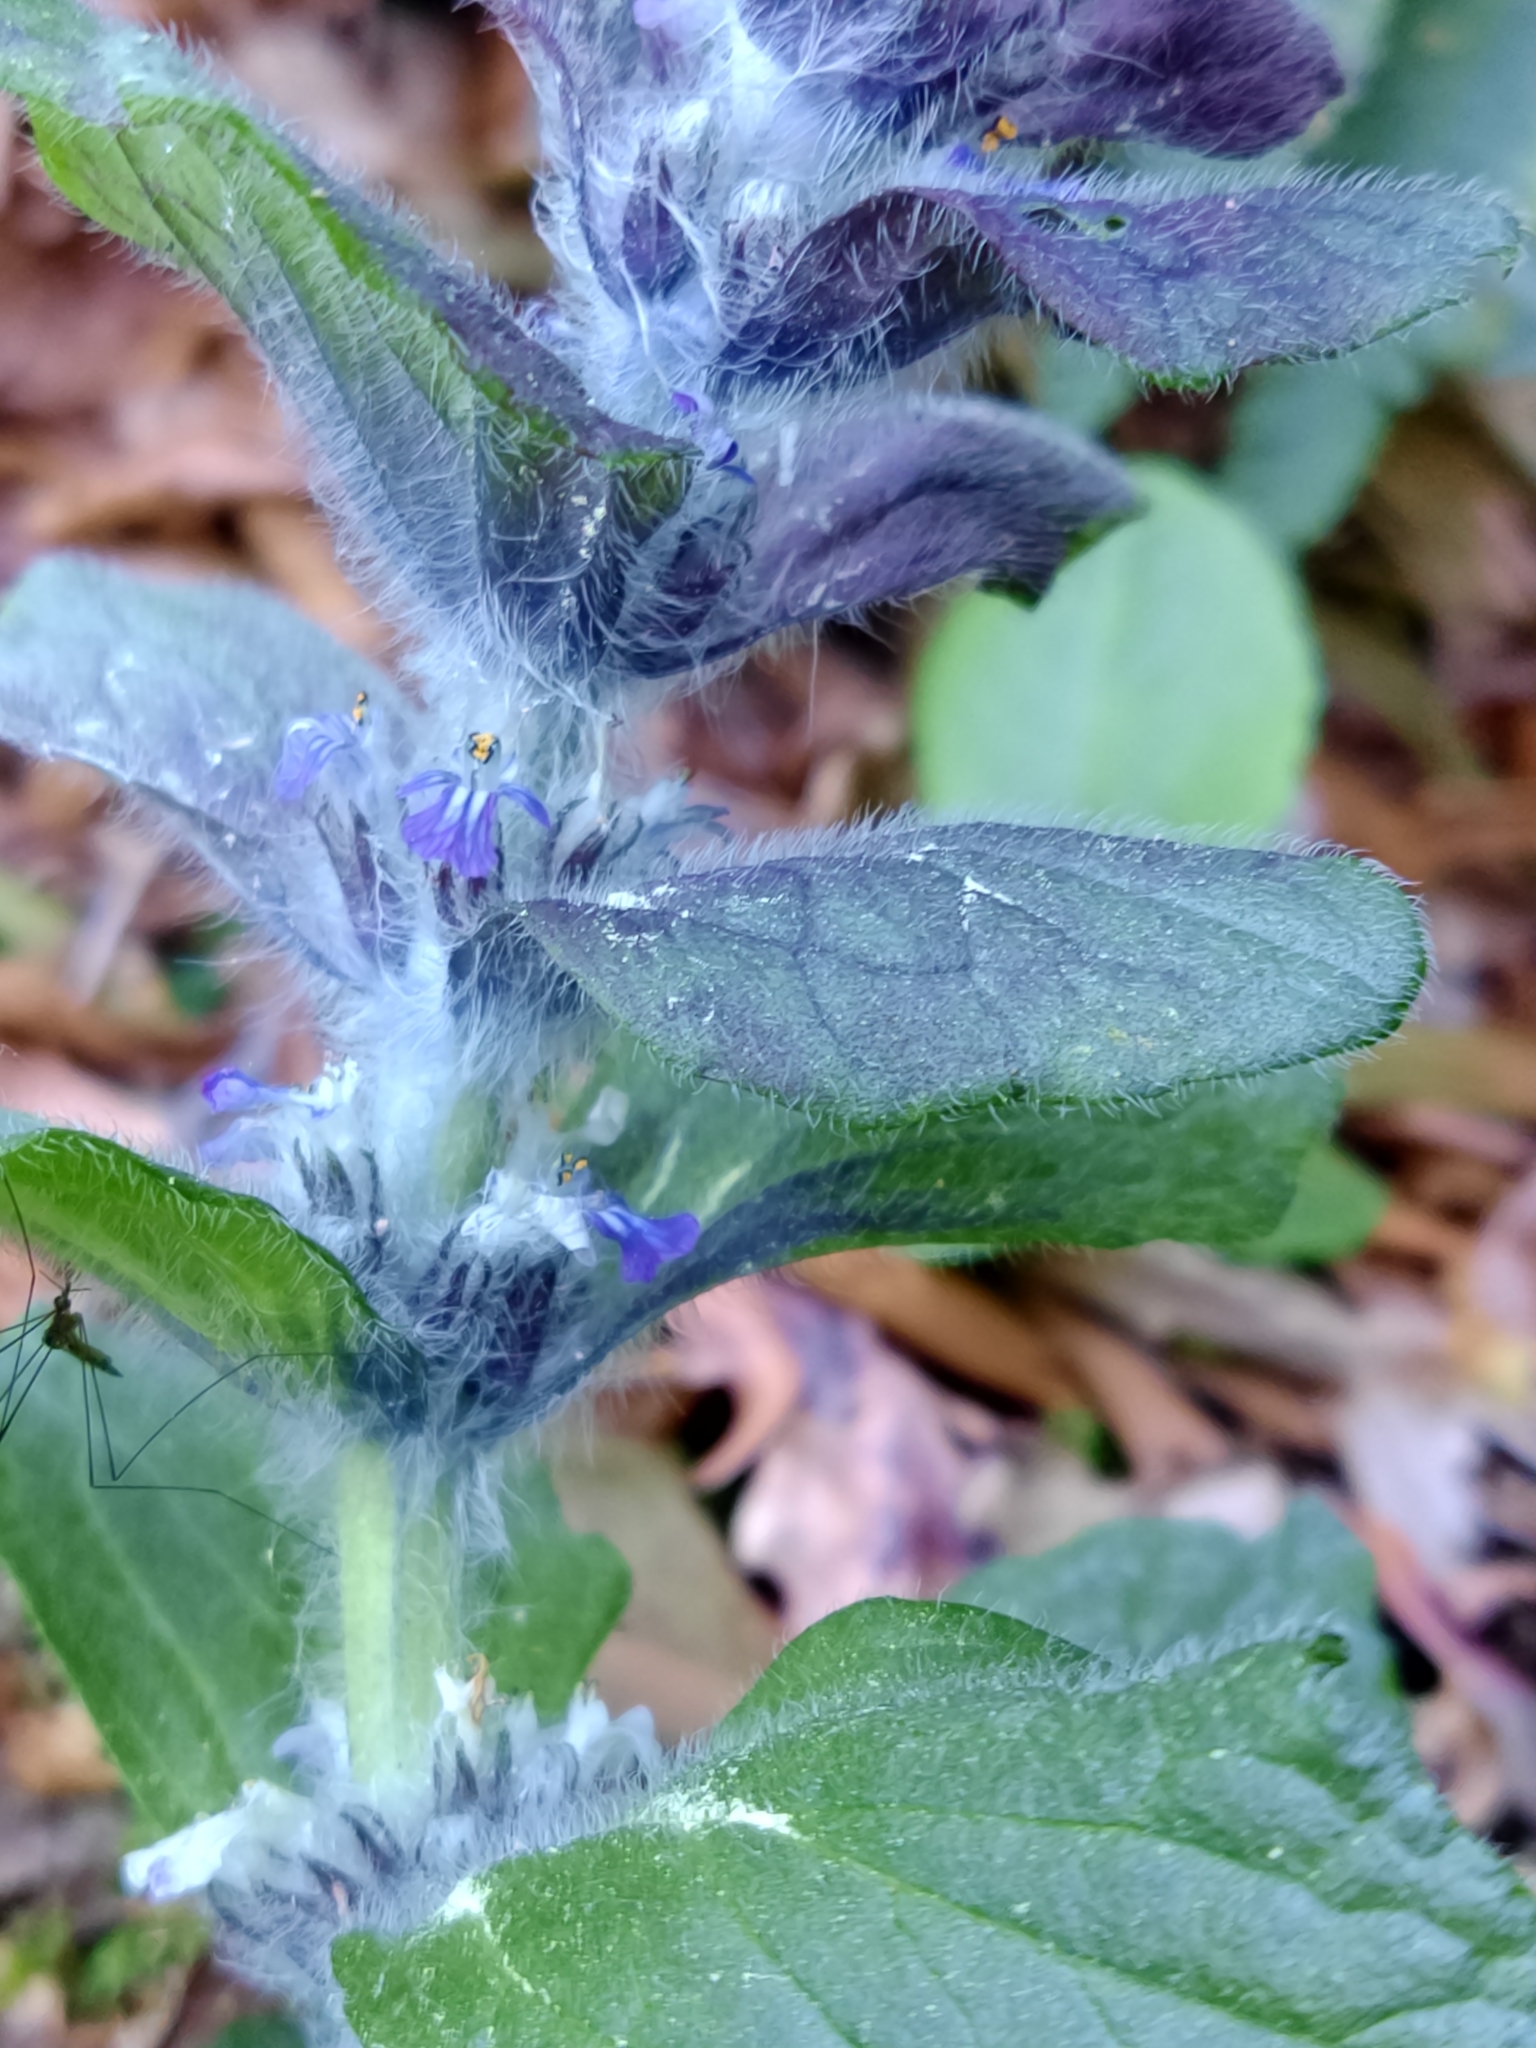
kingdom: Plantae
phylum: Tracheophyta
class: Magnoliopsida
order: Lamiales
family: Lamiaceae
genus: Ajuga
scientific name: Ajuga pyramidalis
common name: Pyramid bugle
